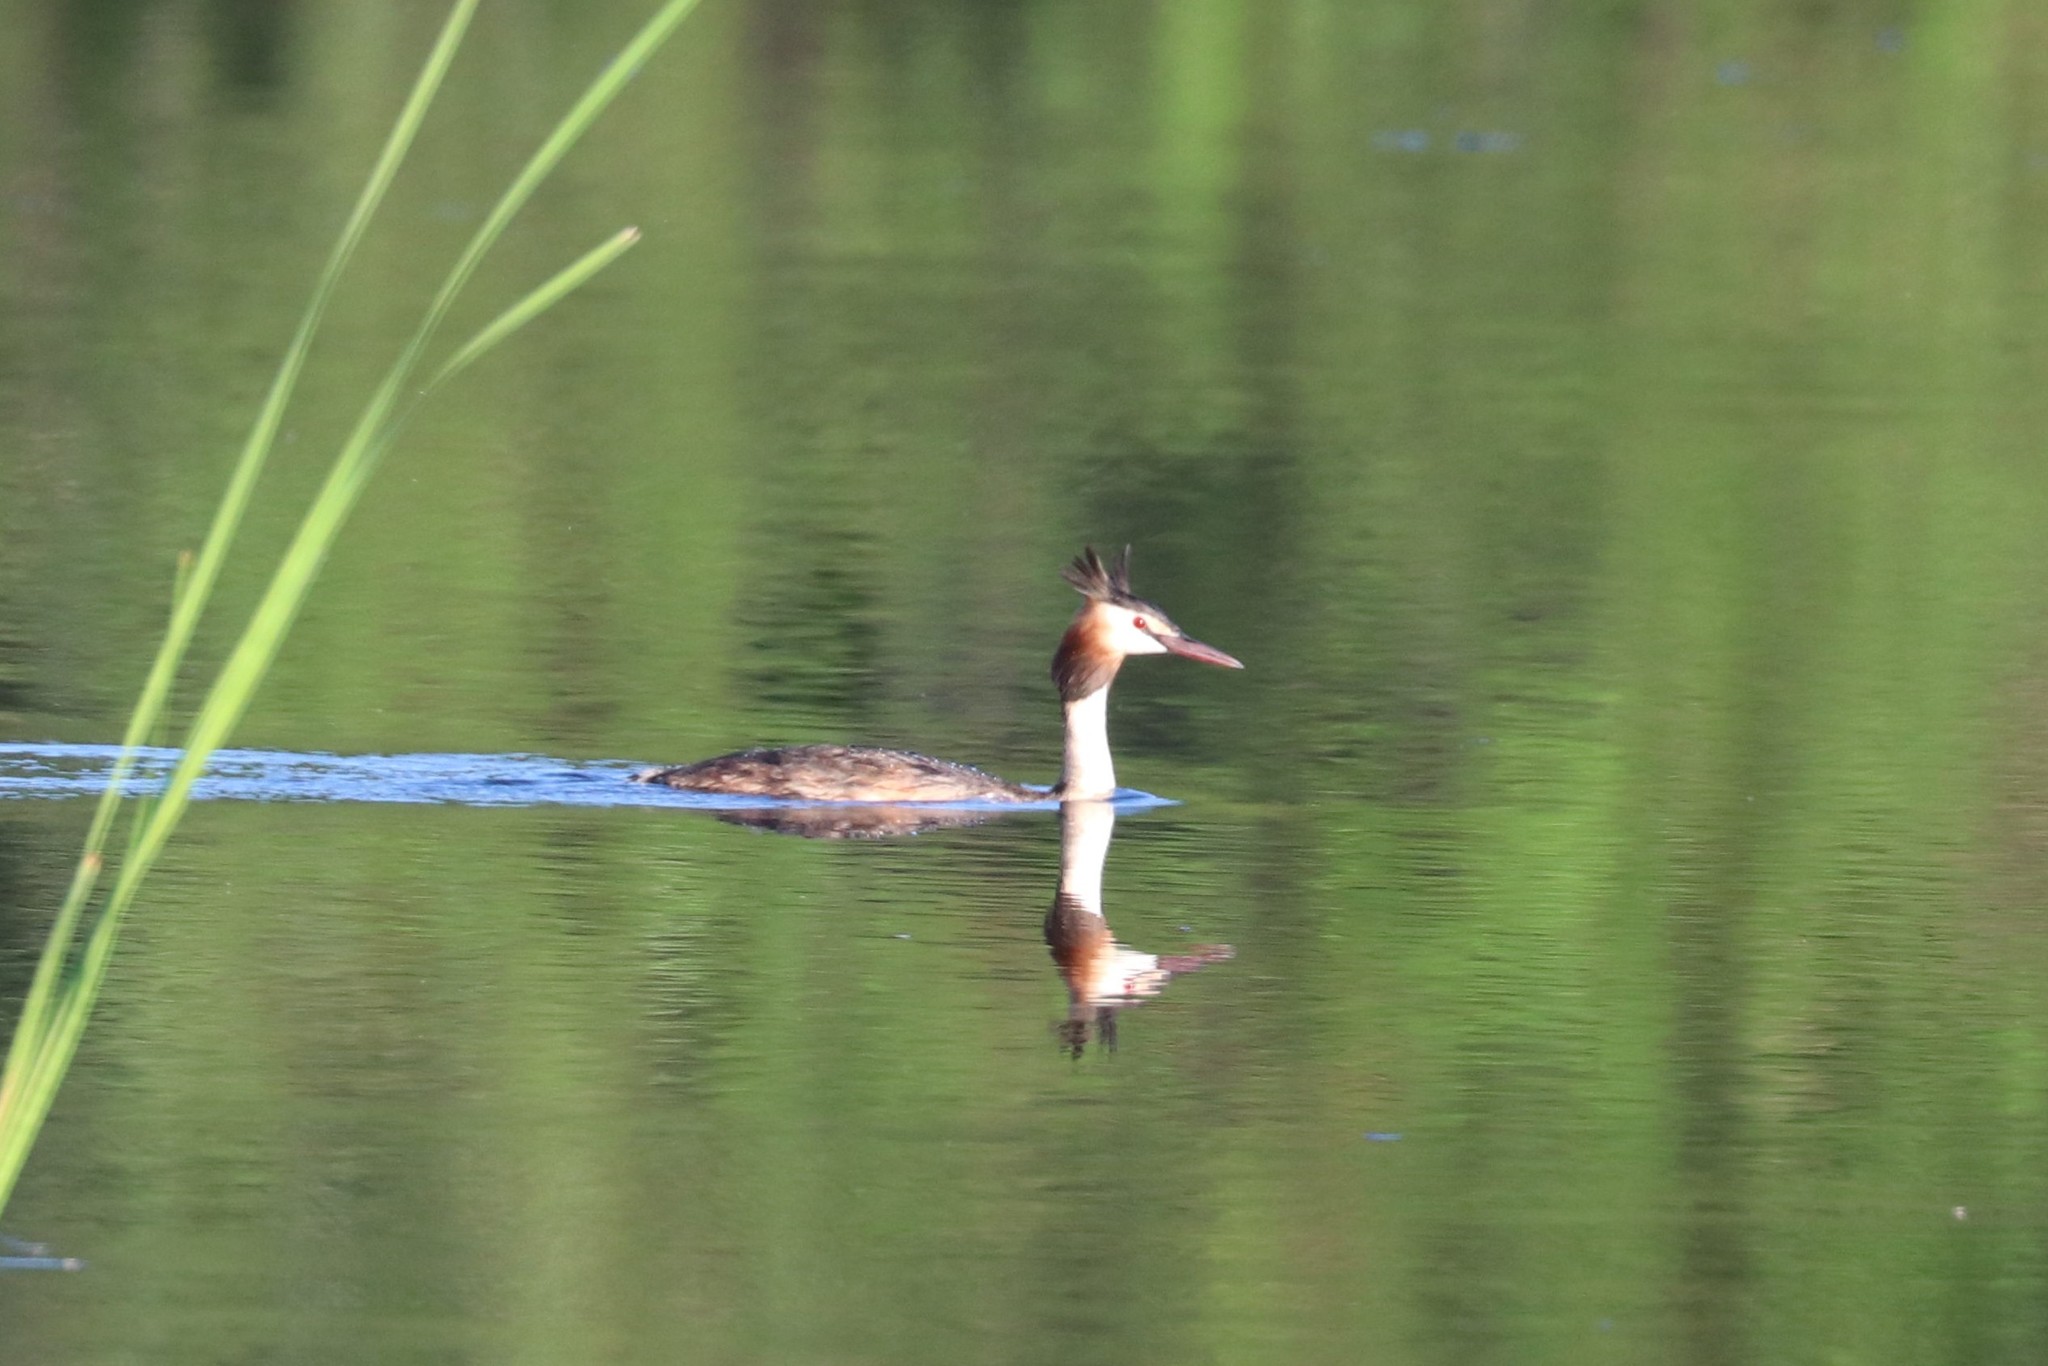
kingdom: Animalia
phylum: Chordata
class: Aves
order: Podicipediformes
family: Podicipedidae
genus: Podiceps
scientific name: Podiceps cristatus
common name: Great crested grebe
